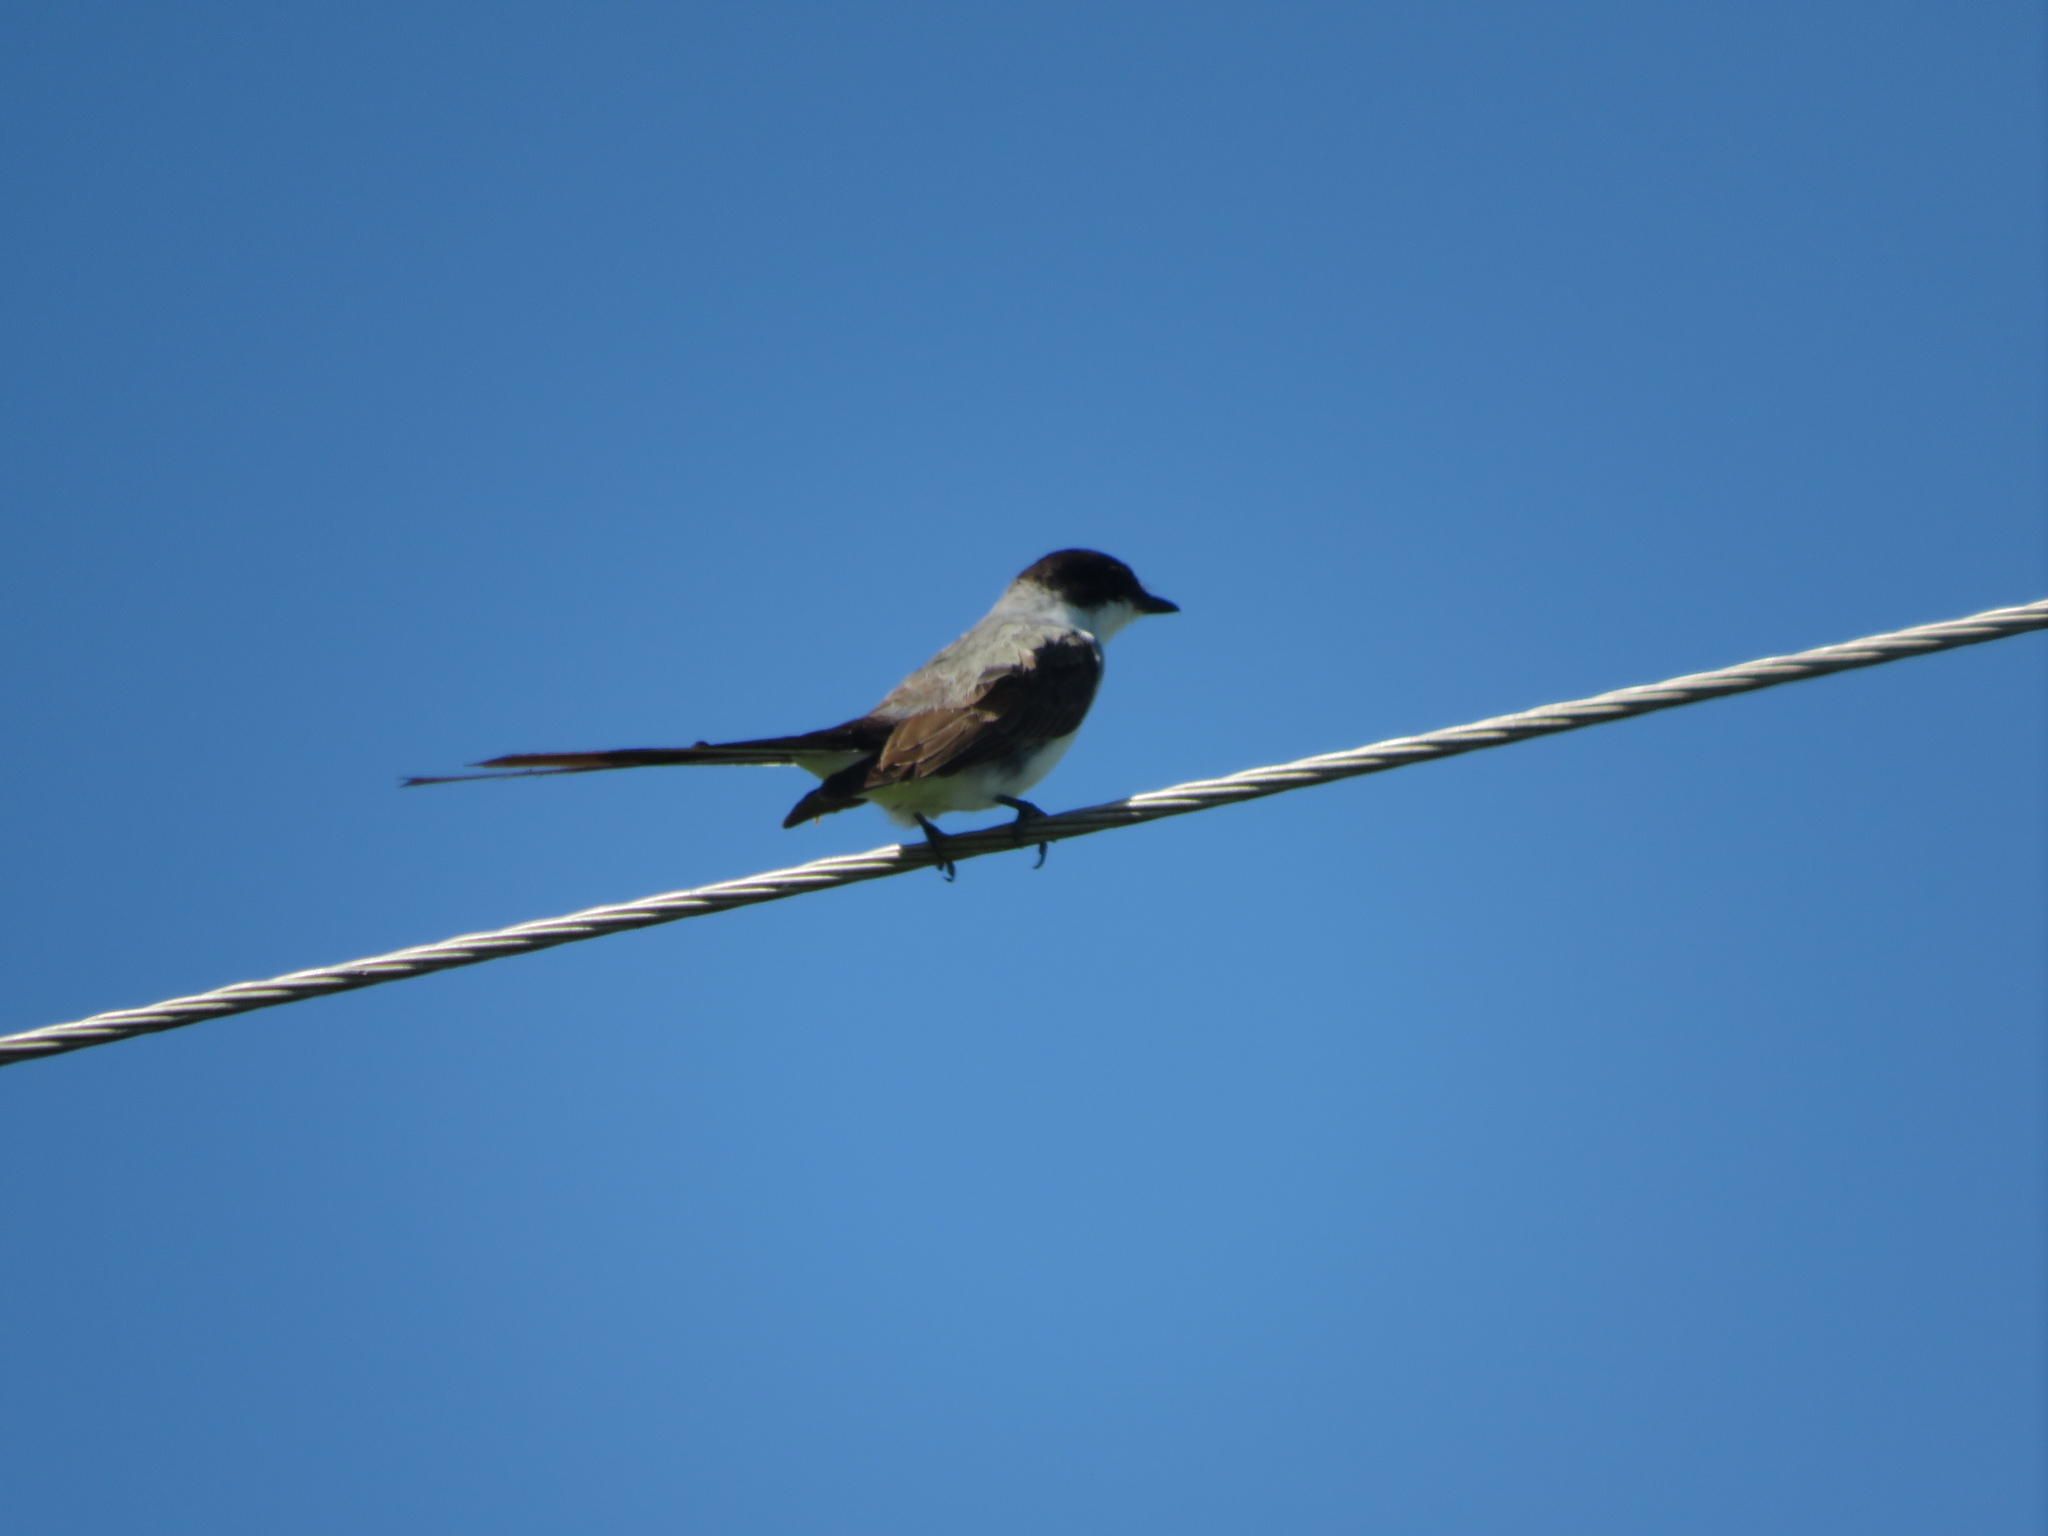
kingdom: Animalia
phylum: Chordata
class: Aves
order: Passeriformes
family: Tyrannidae
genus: Tyrannus
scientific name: Tyrannus savana
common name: Fork-tailed flycatcher
